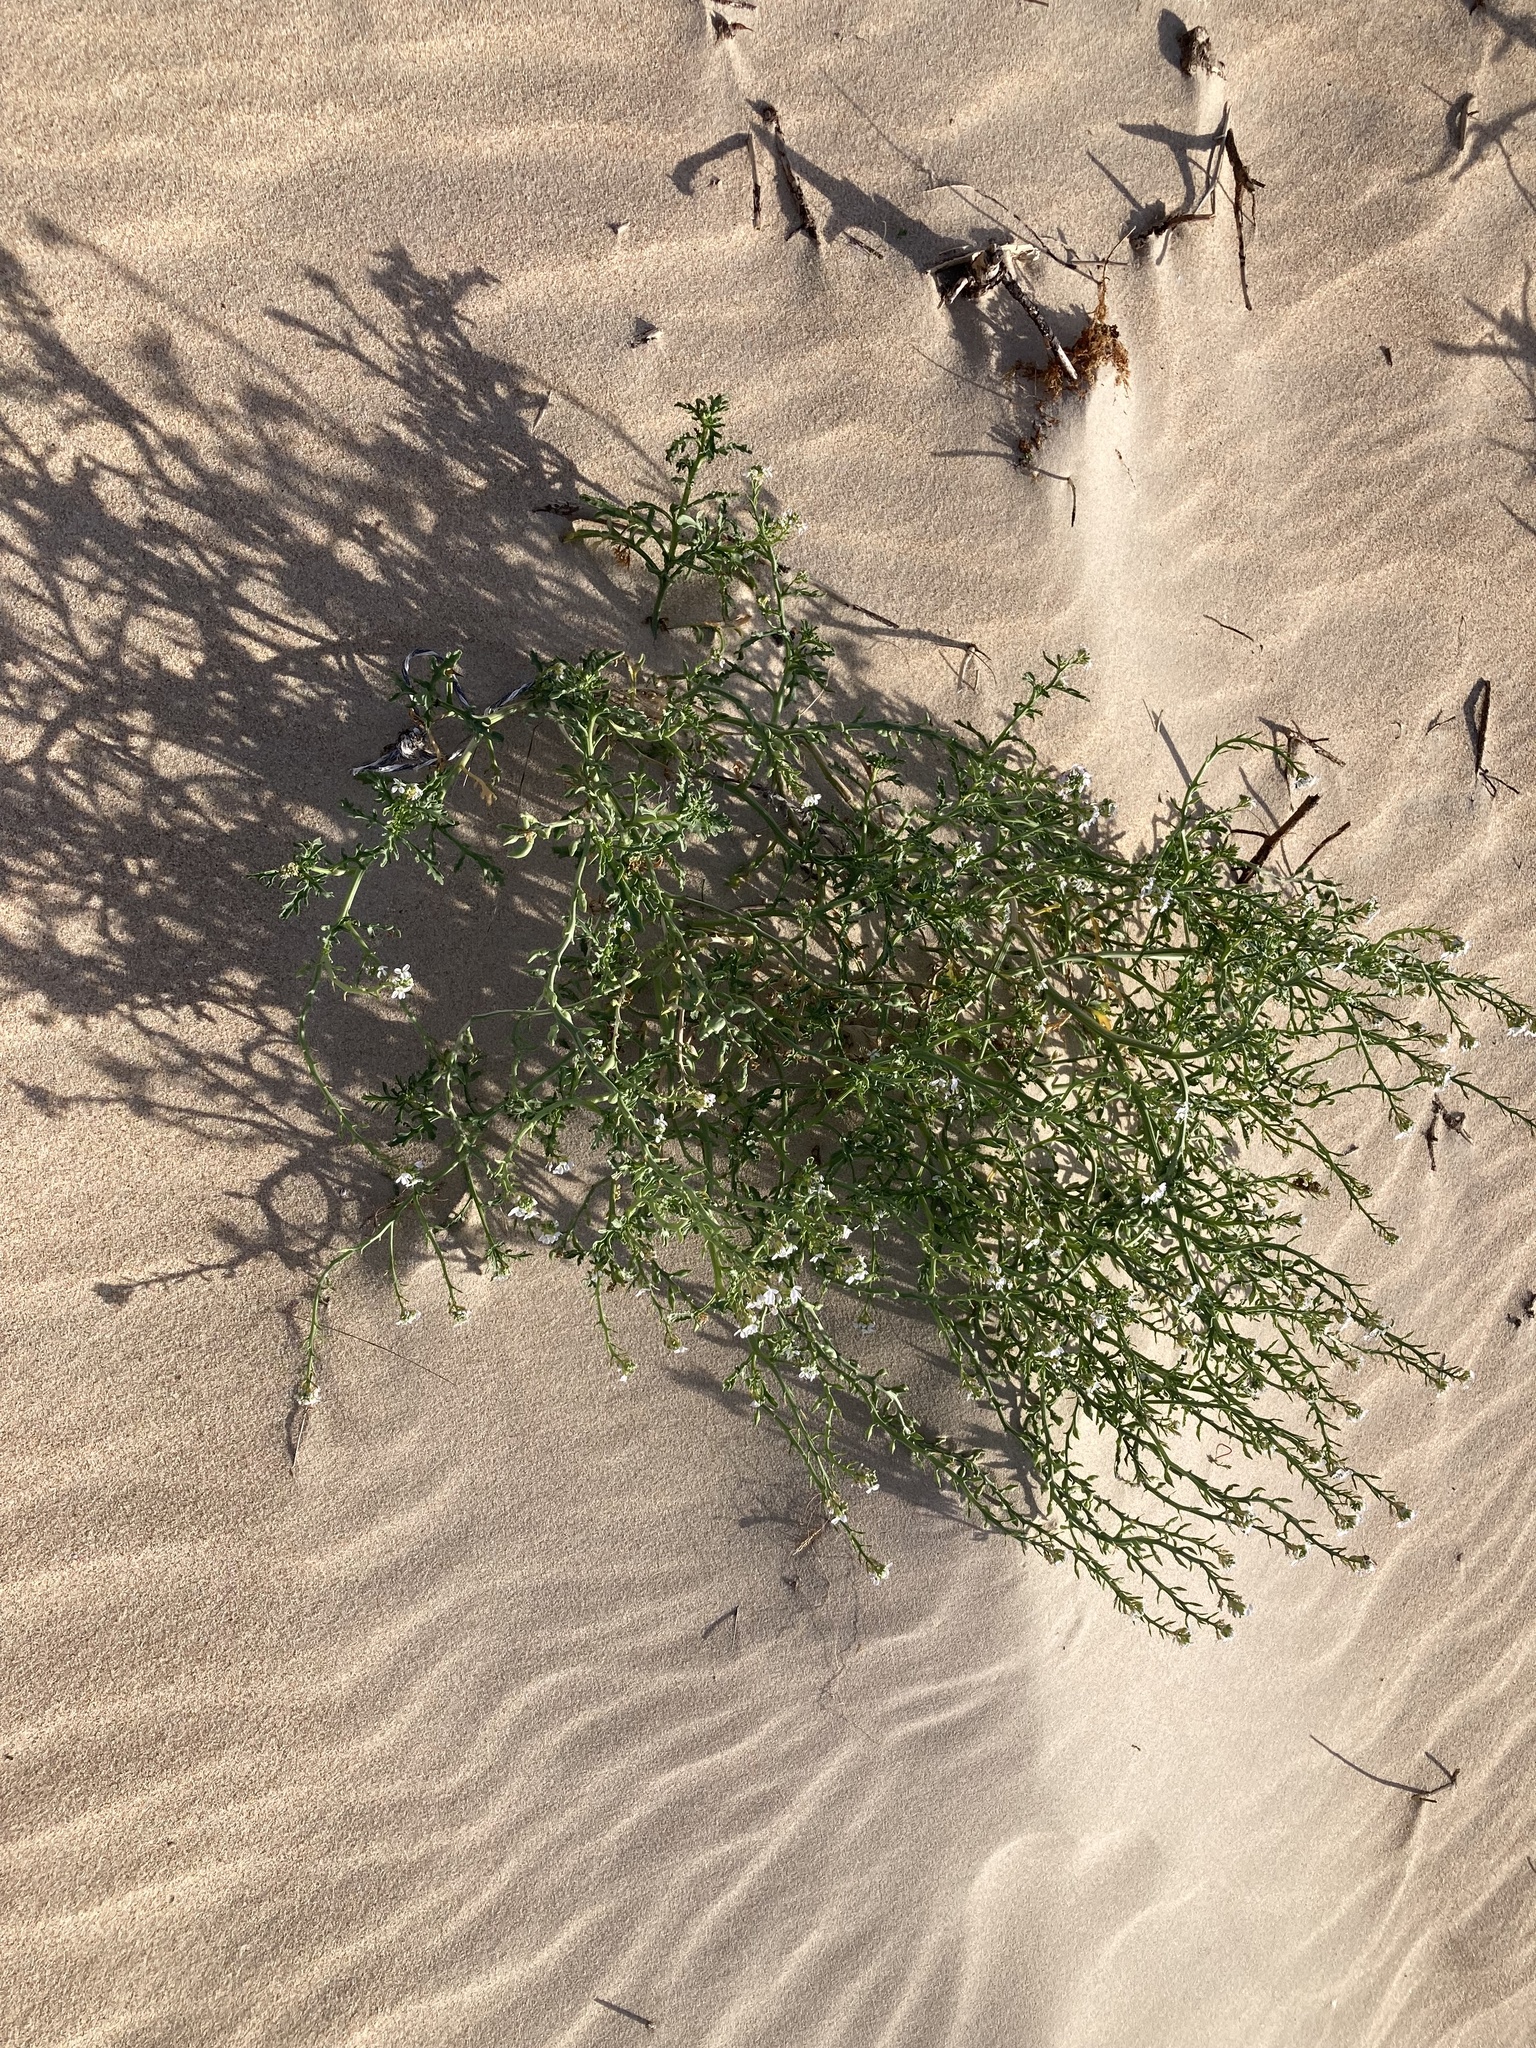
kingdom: Plantae
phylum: Tracheophyta
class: Magnoliopsida
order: Brassicales
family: Brassicaceae
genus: Cakile
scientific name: Cakile maritima
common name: Sea rocket
